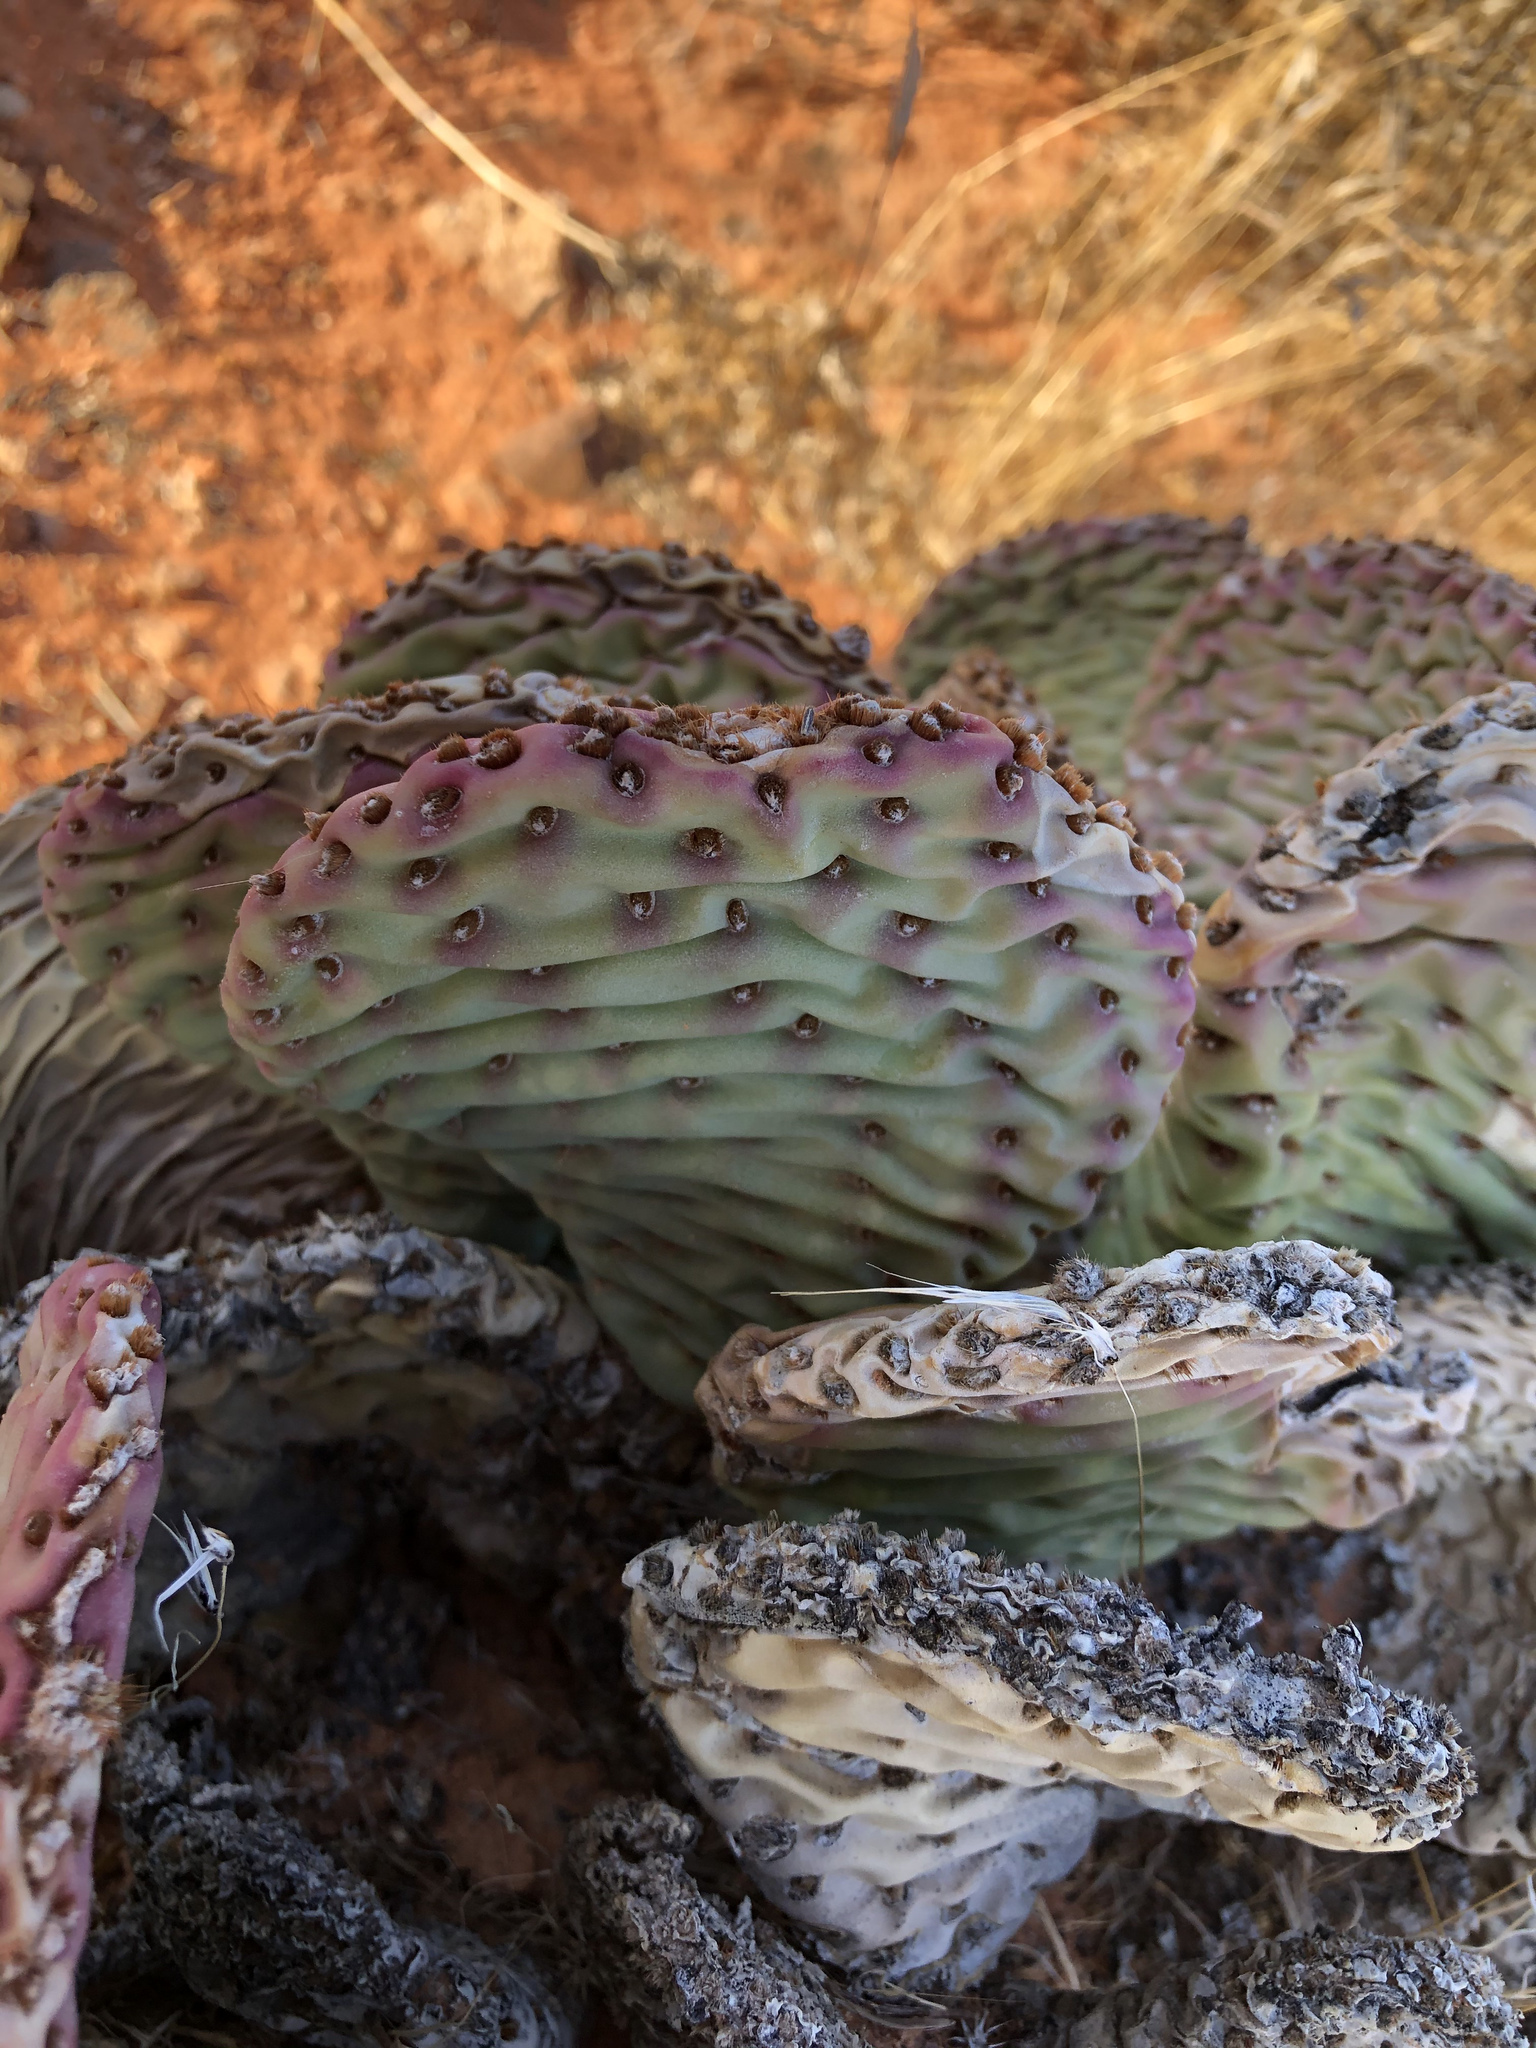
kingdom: Plantae
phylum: Tracheophyta
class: Magnoliopsida
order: Caryophyllales
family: Cactaceae
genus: Opuntia
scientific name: Opuntia basilaris
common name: Beavertail prickly-pear
